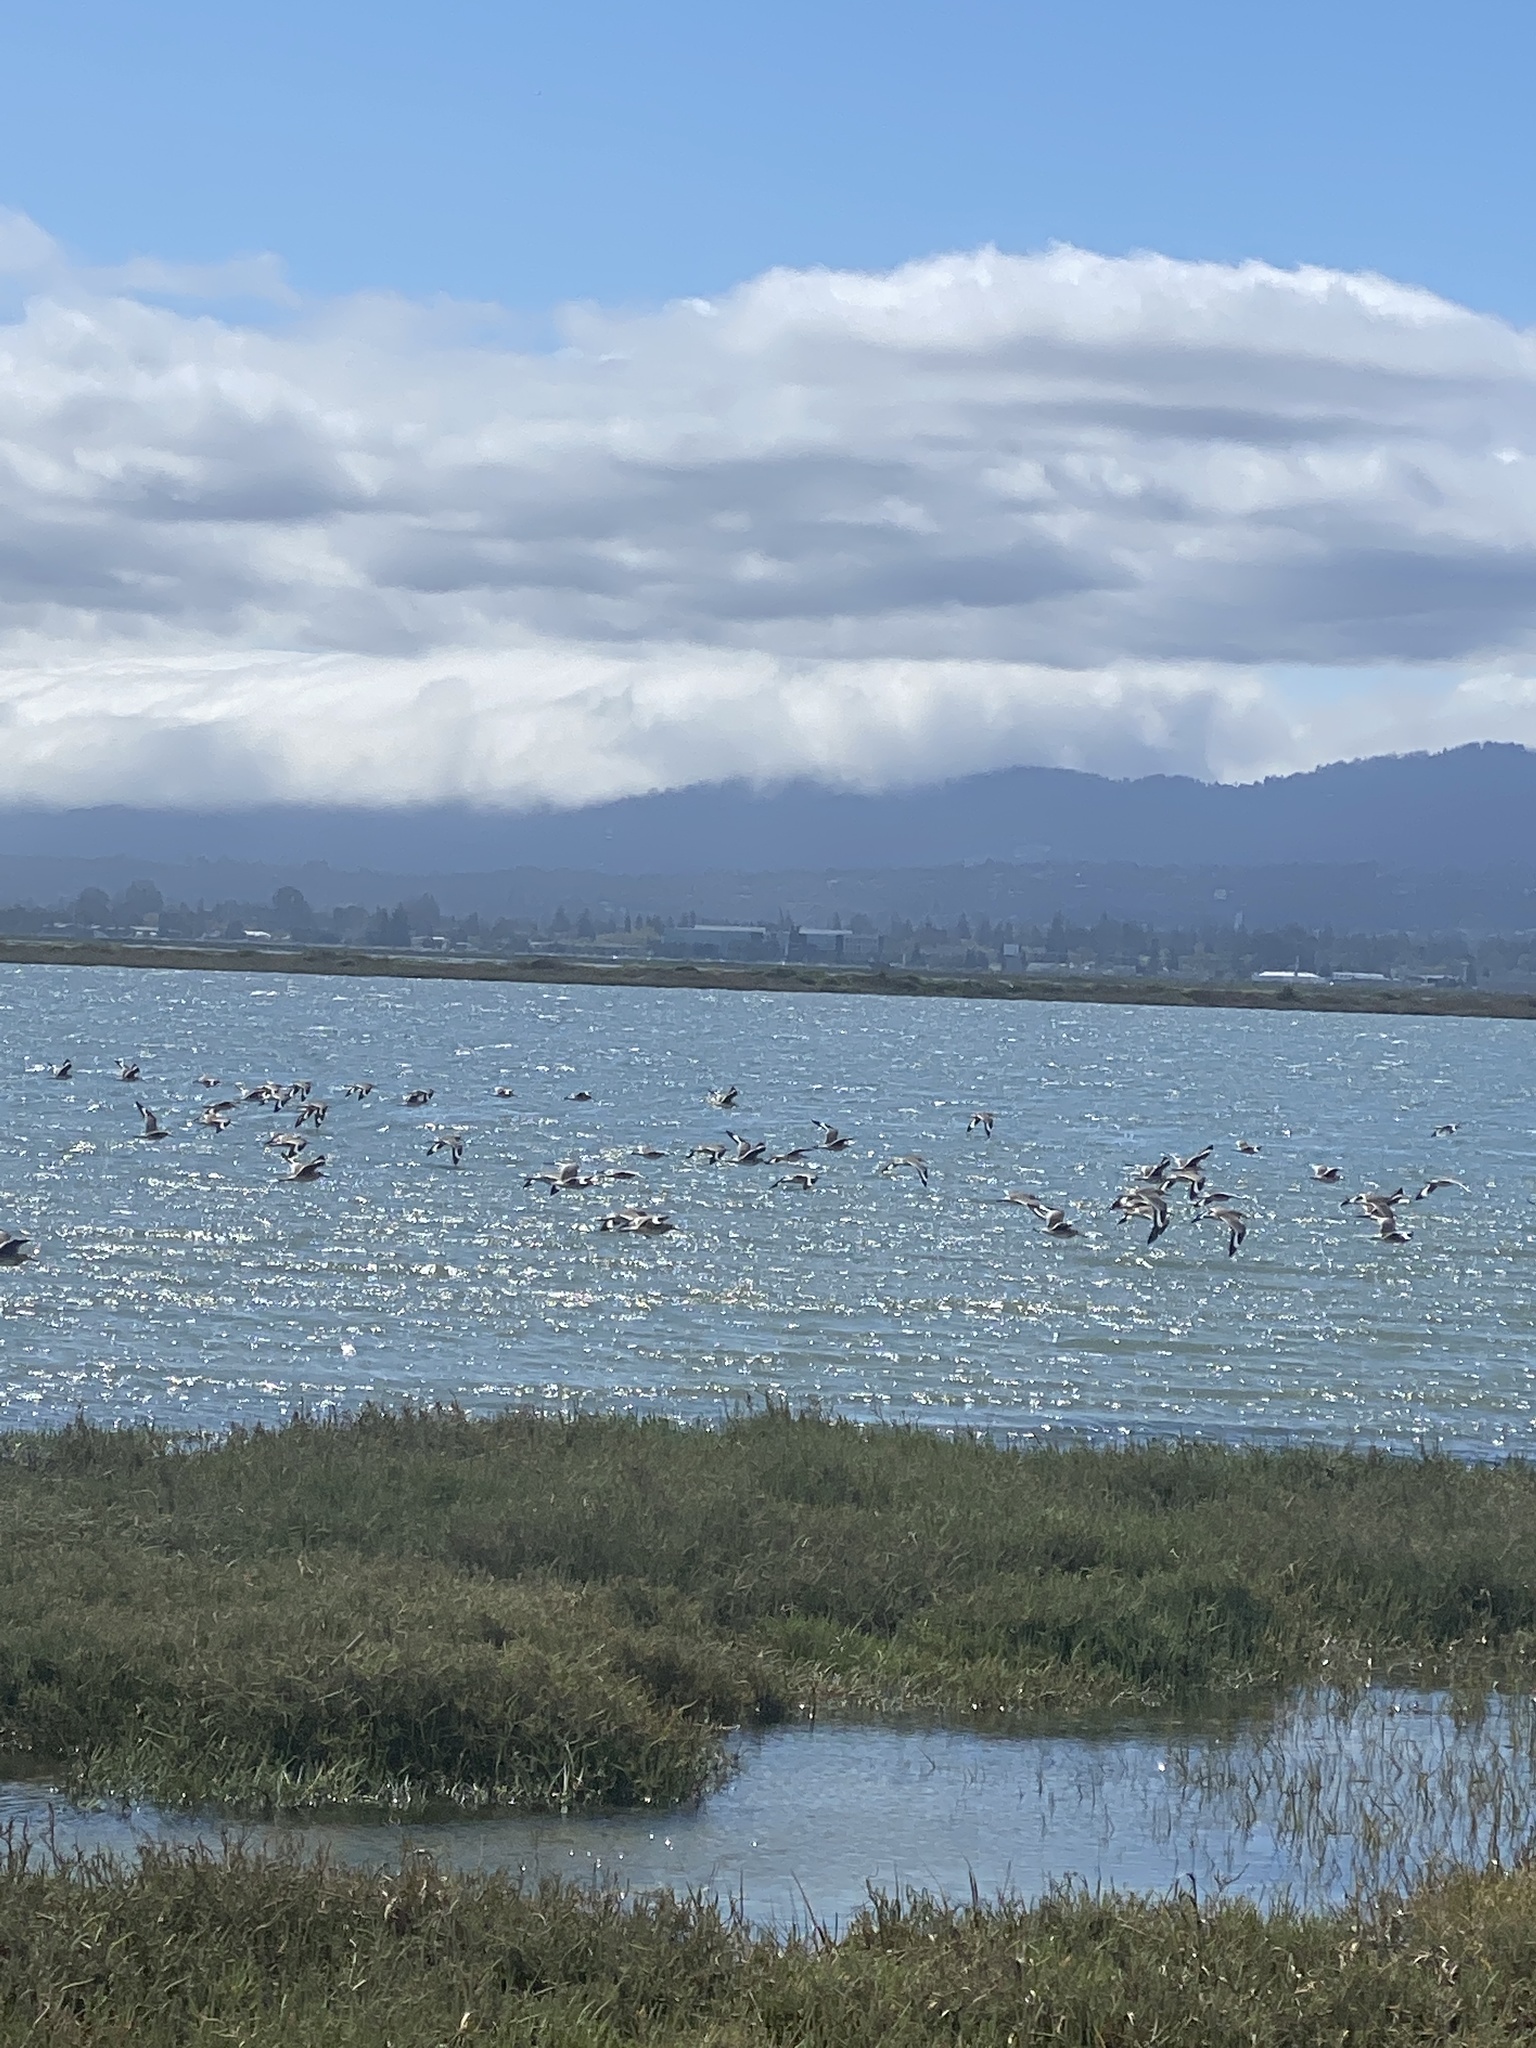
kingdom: Animalia
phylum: Chordata
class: Aves
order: Charadriiformes
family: Scolopacidae
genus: Tringa
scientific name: Tringa semipalmata
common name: Willet
